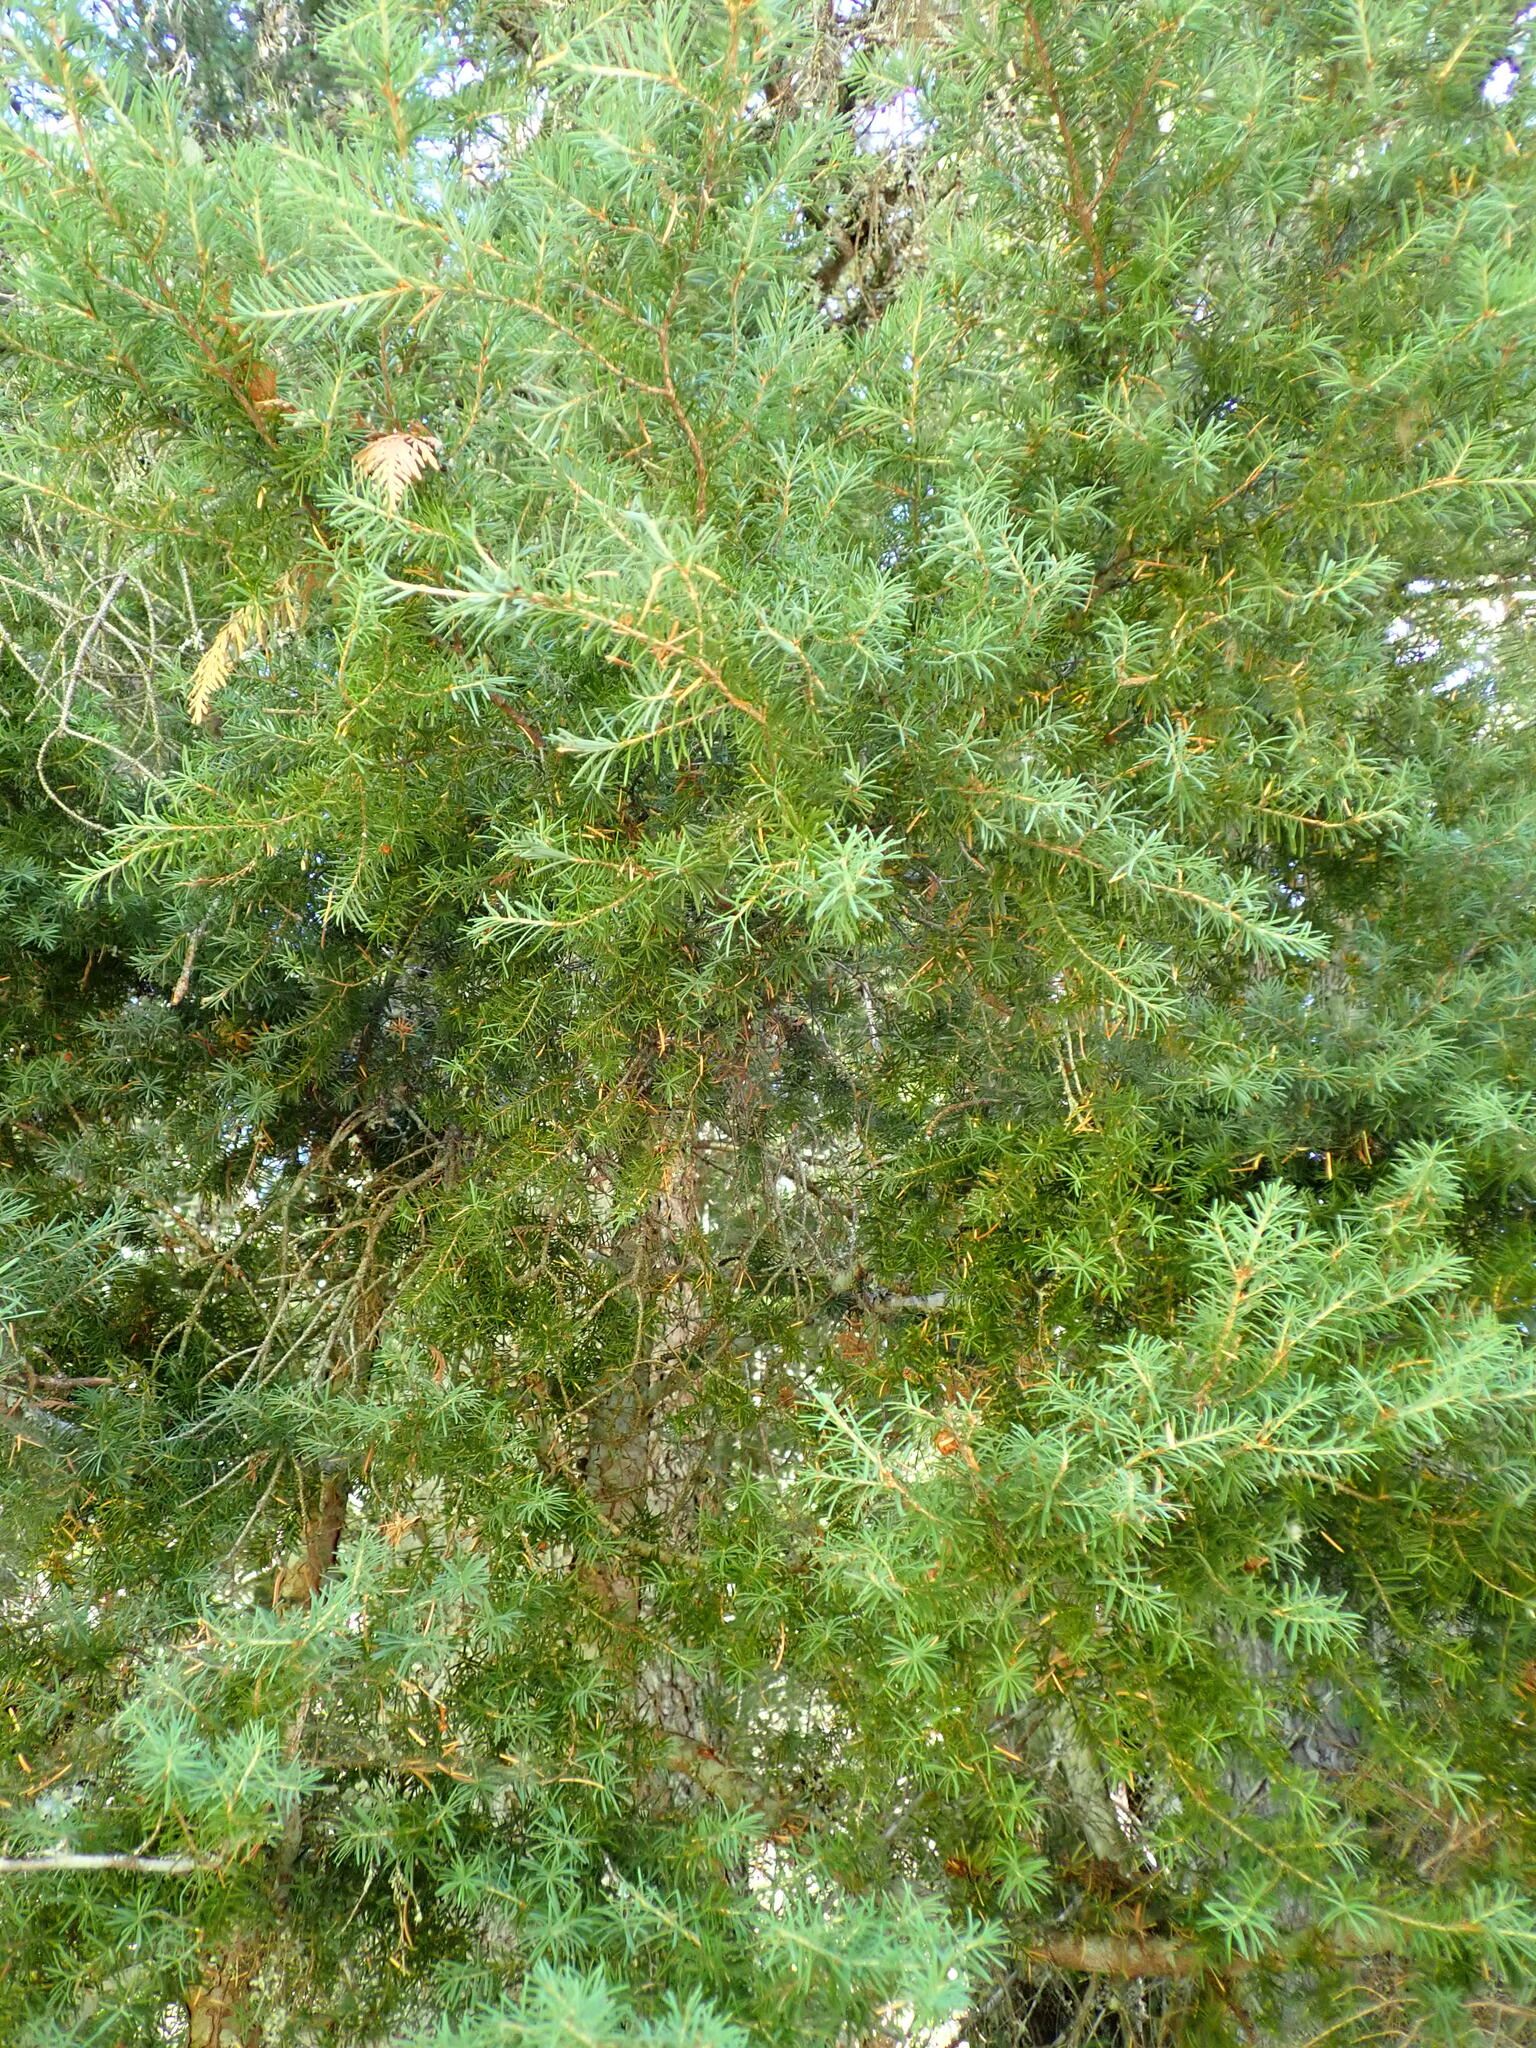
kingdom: Plantae
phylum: Tracheophyta
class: Pinopsida
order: Pinales
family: Pinaceae
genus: Tsuga
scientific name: Tsuga mertensiana
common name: Mountain hemlock
